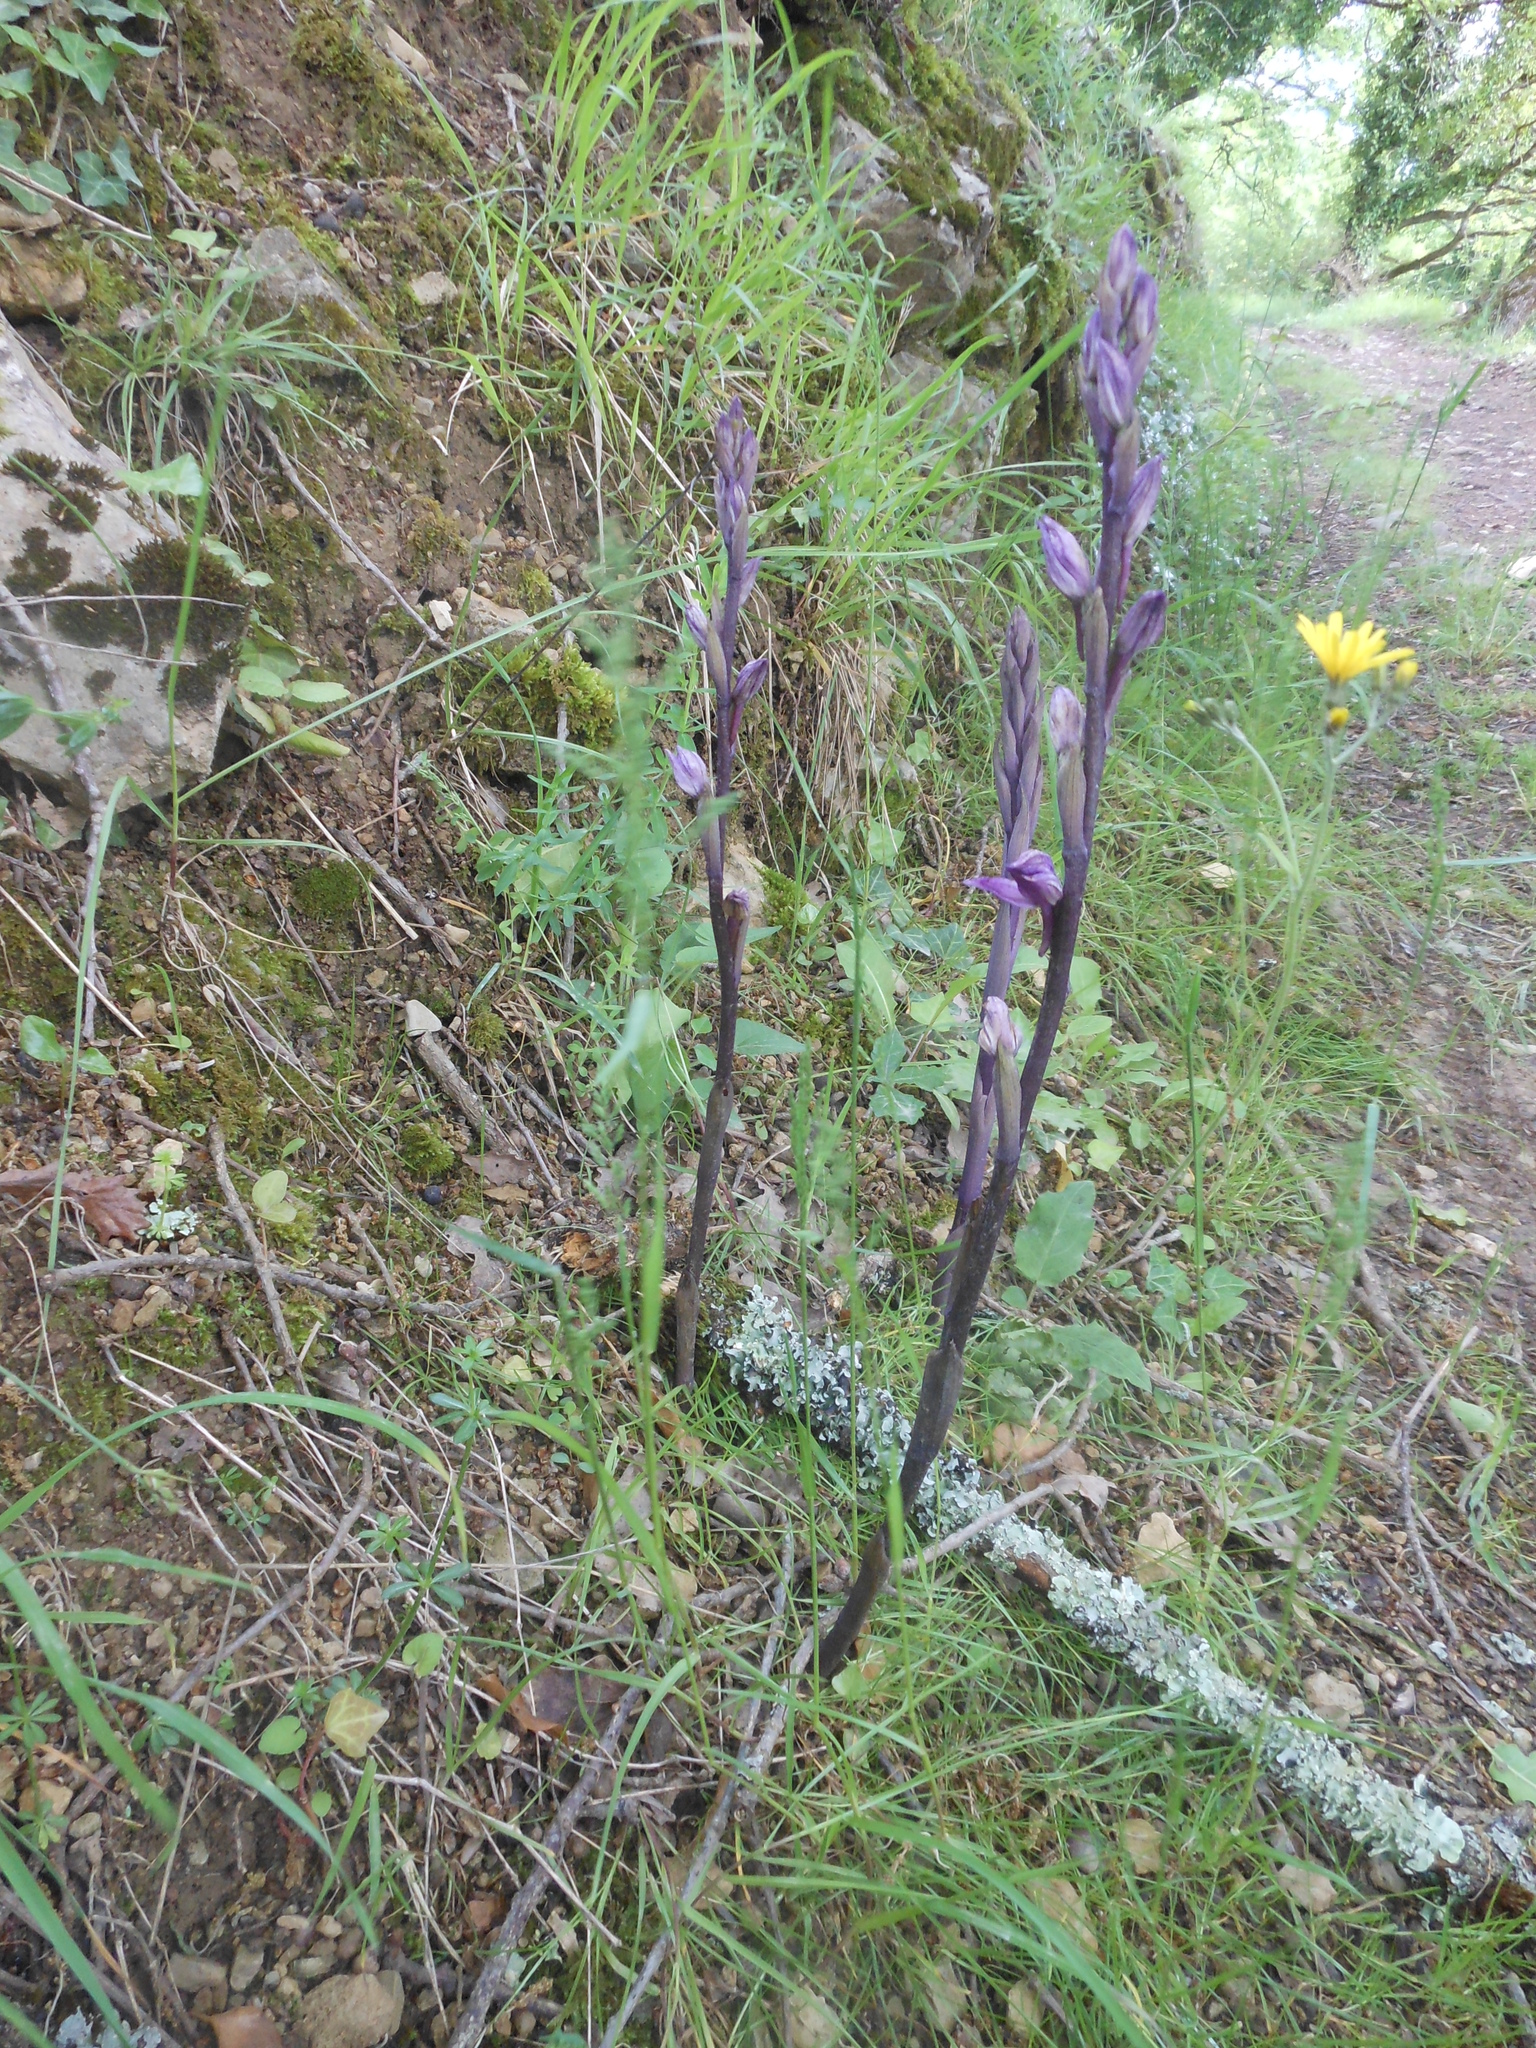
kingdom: Plantae
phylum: Tracheophyta
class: Liliopsida
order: Asparagales
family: Orchidaceae
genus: Limodorum
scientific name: Limodorum abortivum
